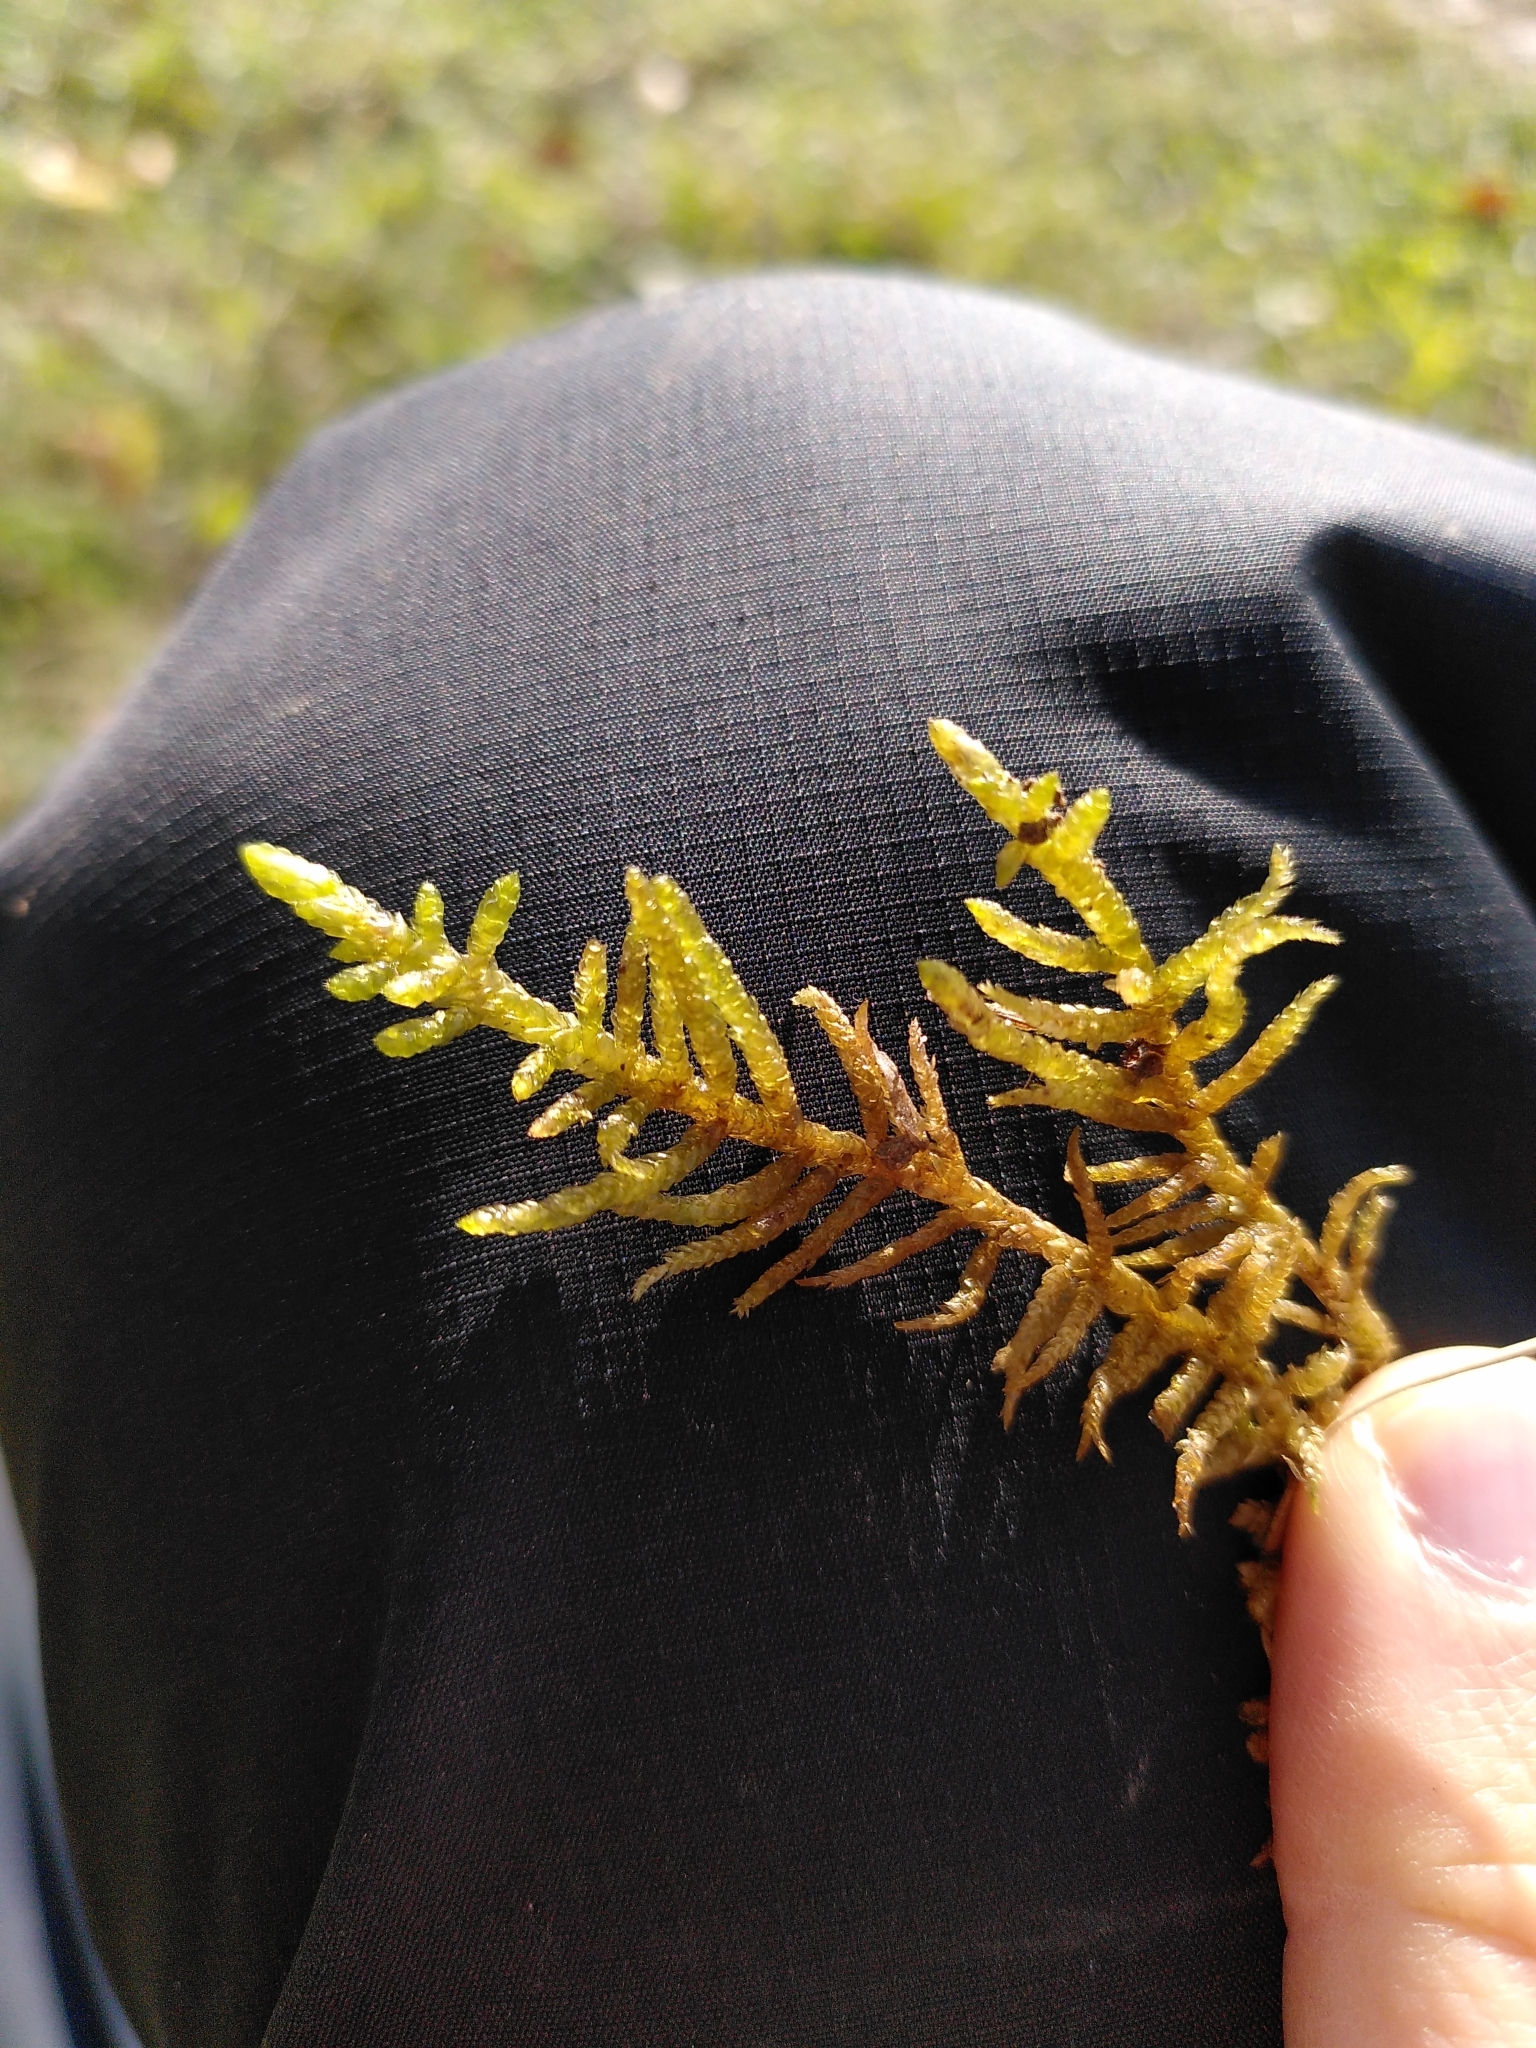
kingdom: Plantae
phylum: Bryophyta
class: Bryopsida
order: Hypnales
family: Brachytheciaceae
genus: Pseudoscleropodium
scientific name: Pseudoscleropodium purum
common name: Neat feather-moss
